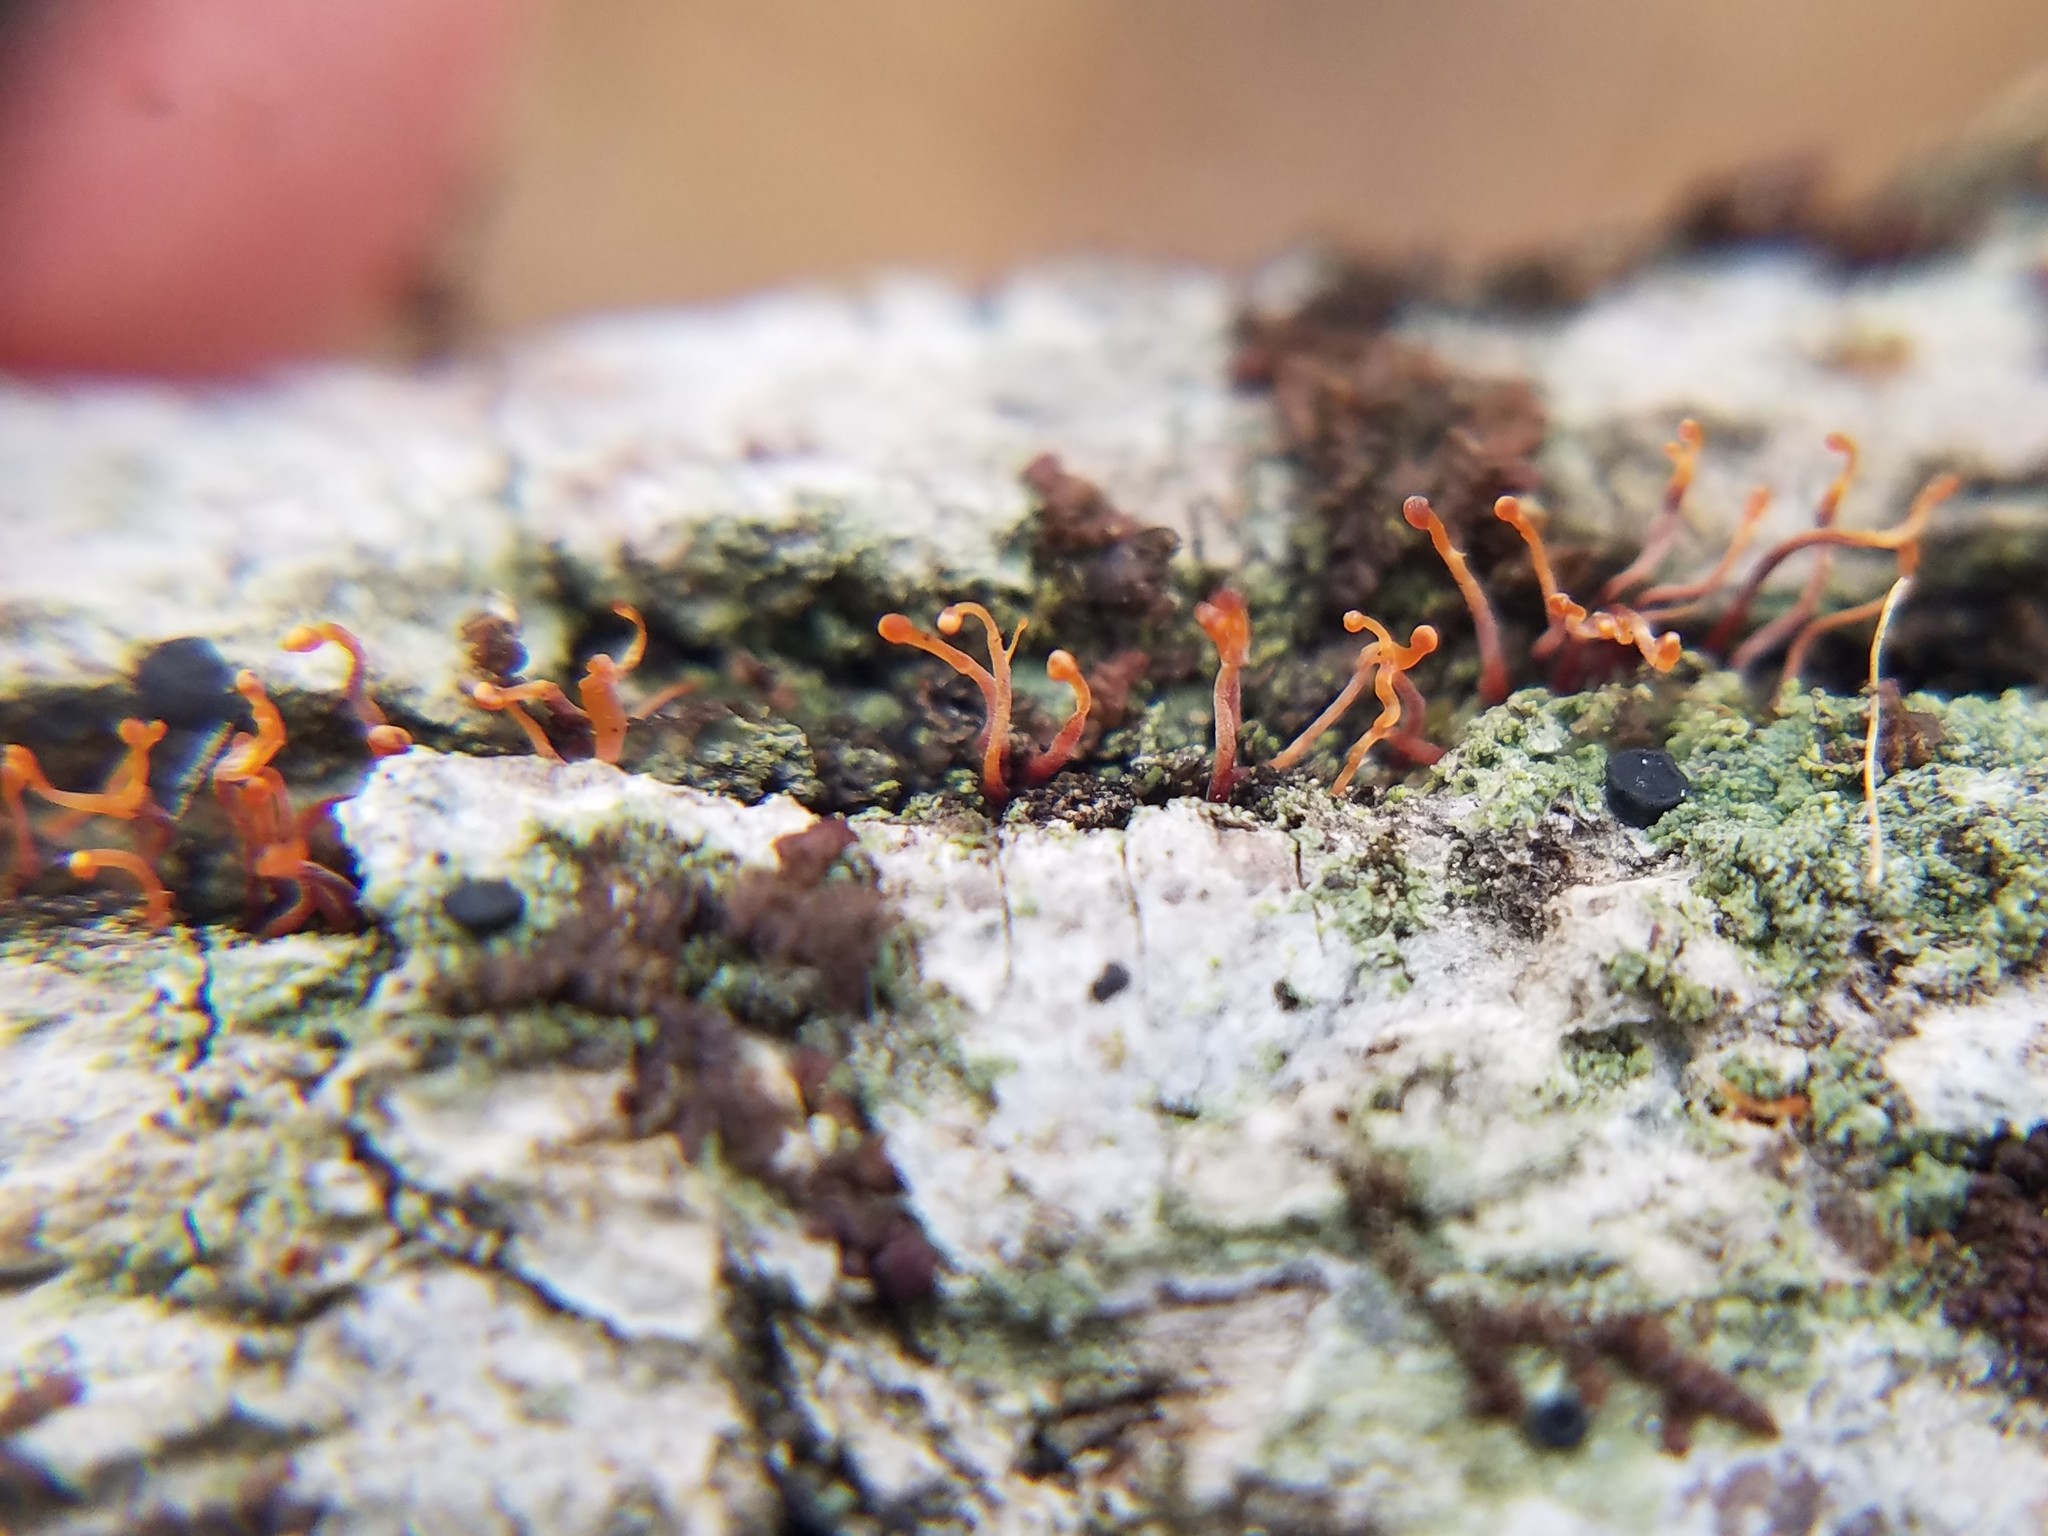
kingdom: Fungi
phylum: Ascomycota
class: Sordariomycetes
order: Hypocreales
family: Nectriaceae
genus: Nectria
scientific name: Nectria pseudotrichia
